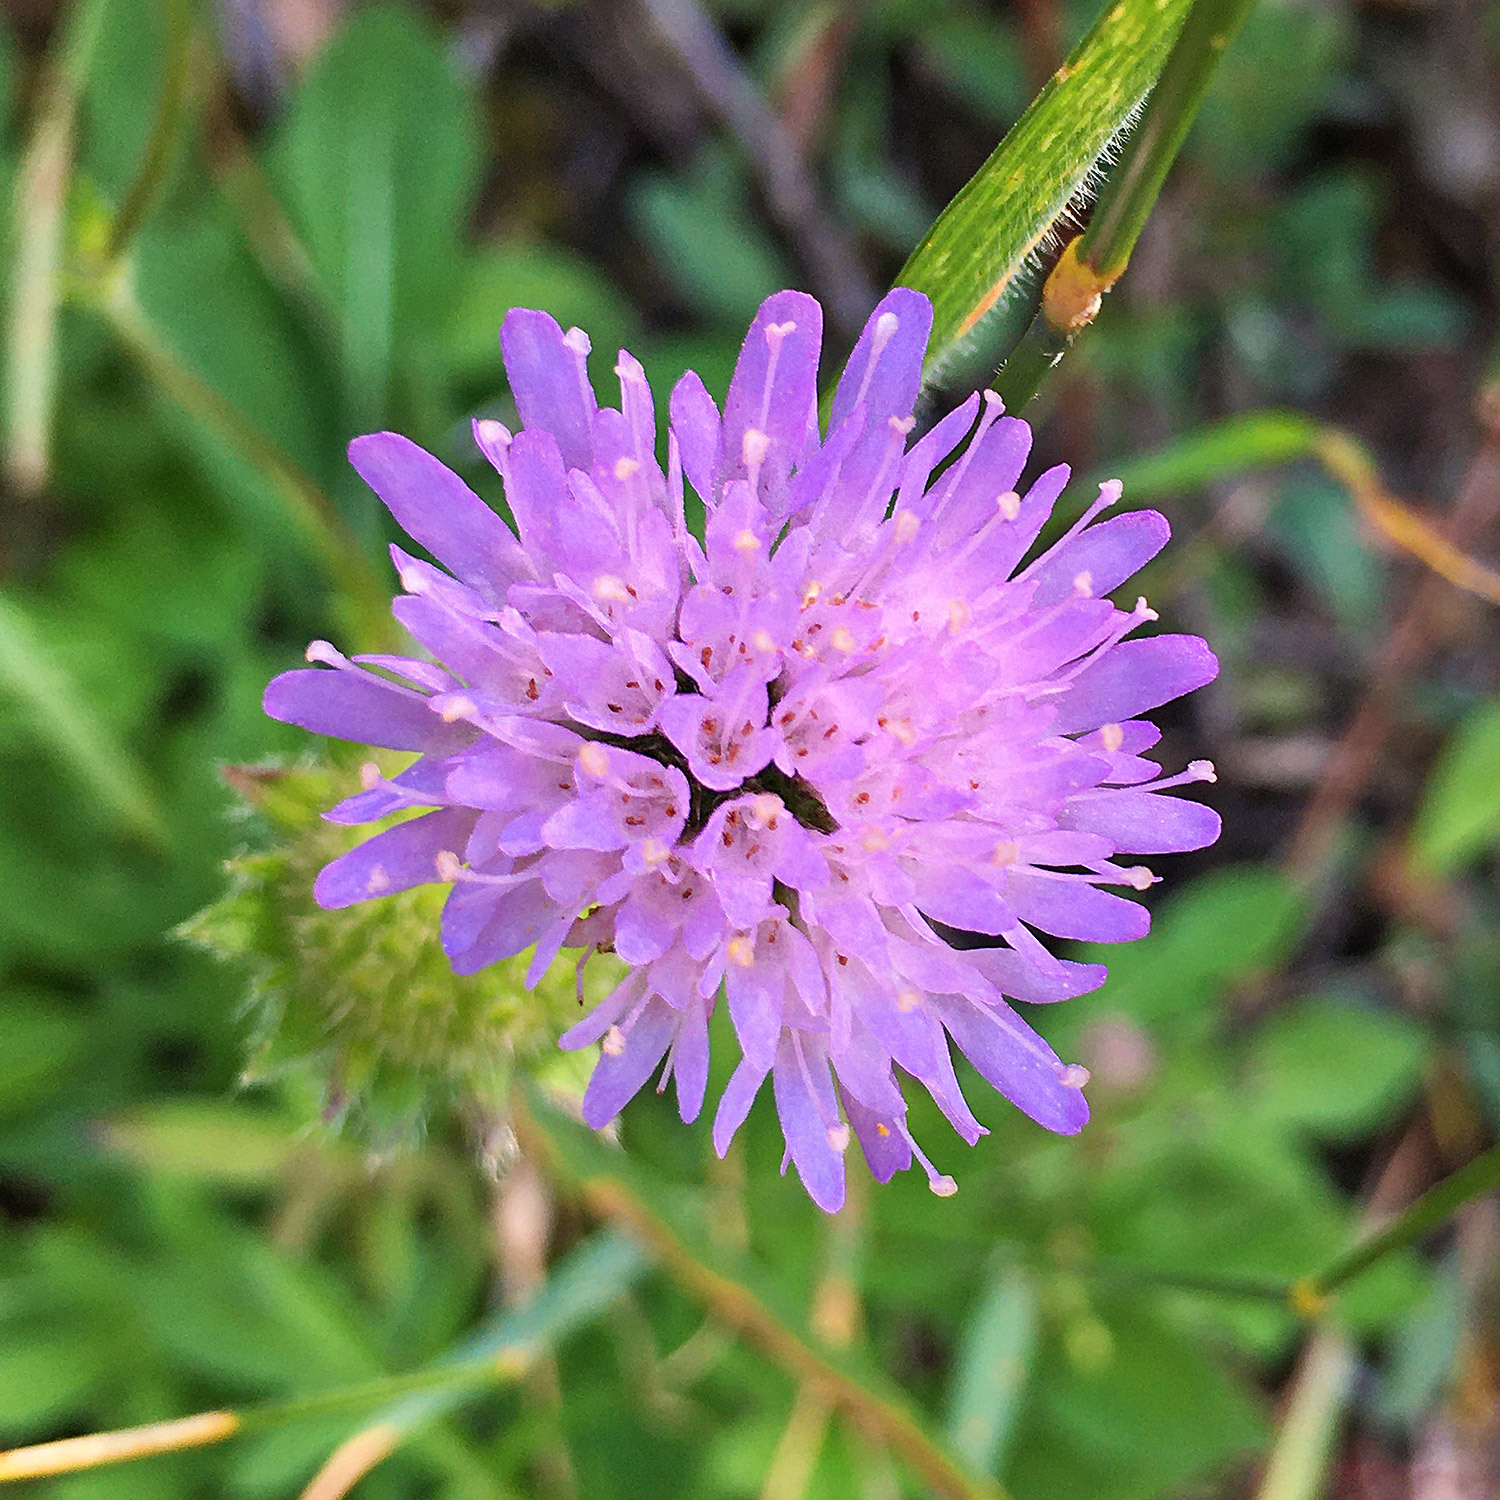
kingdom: Plantae
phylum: Tracheophyta
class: Magnoliopsida
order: Dipsacales
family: Caprifoliaceae
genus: Knautia
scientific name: Knautia arvensis
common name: Field scabiosa
